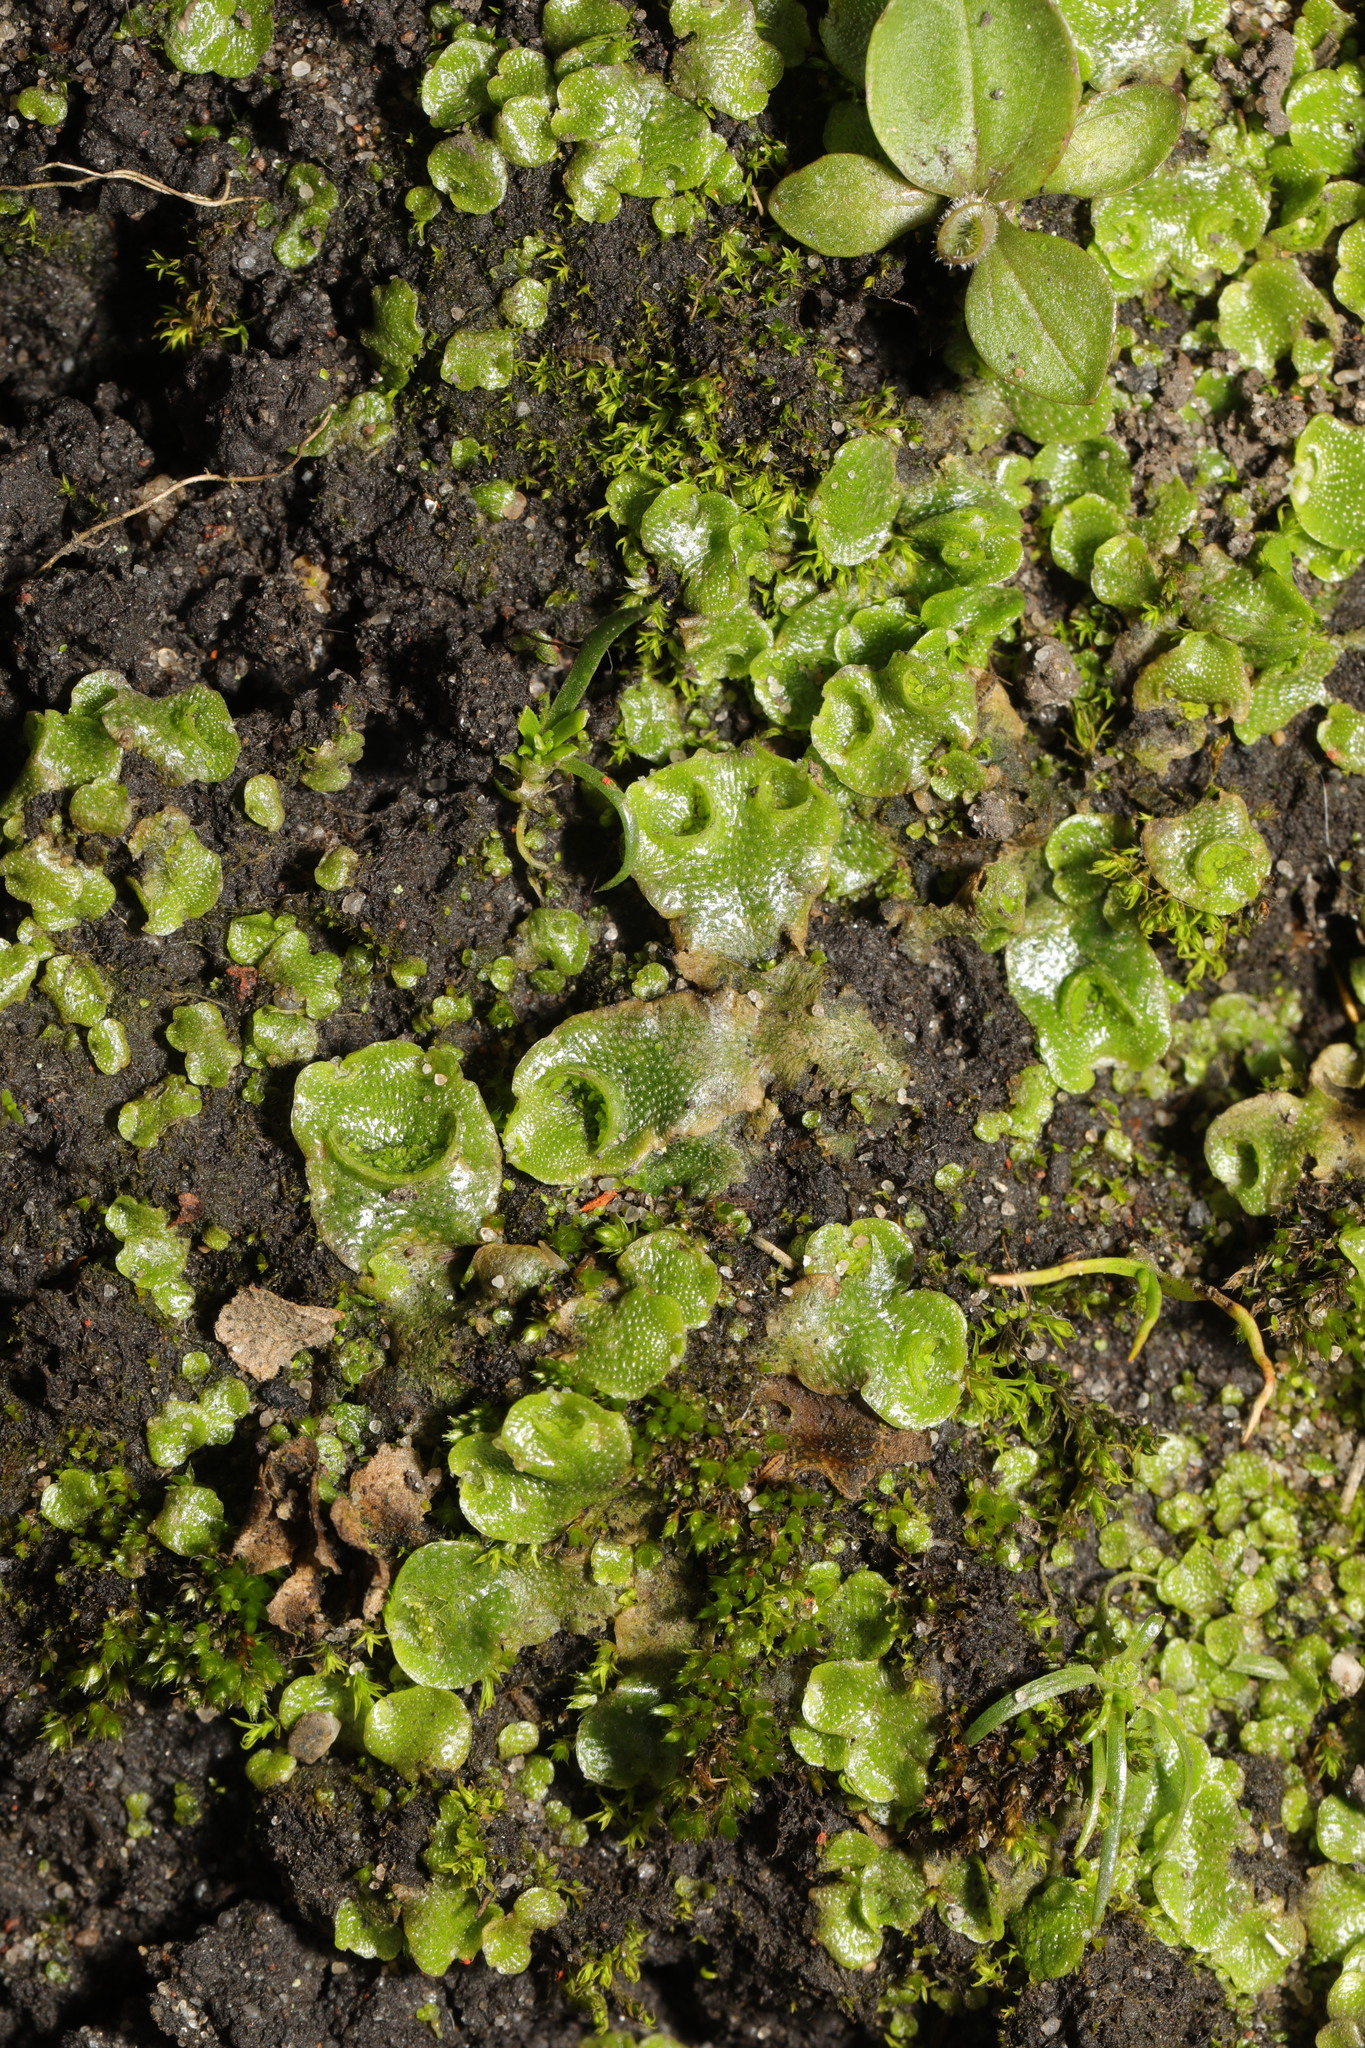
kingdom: Plantae
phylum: Marchantiophyta
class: Marchantiopsida
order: Lunulariales
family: Lunulariaceae
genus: Lunularia
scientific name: Lunularia cruciata
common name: Crescent-cup liverwort
